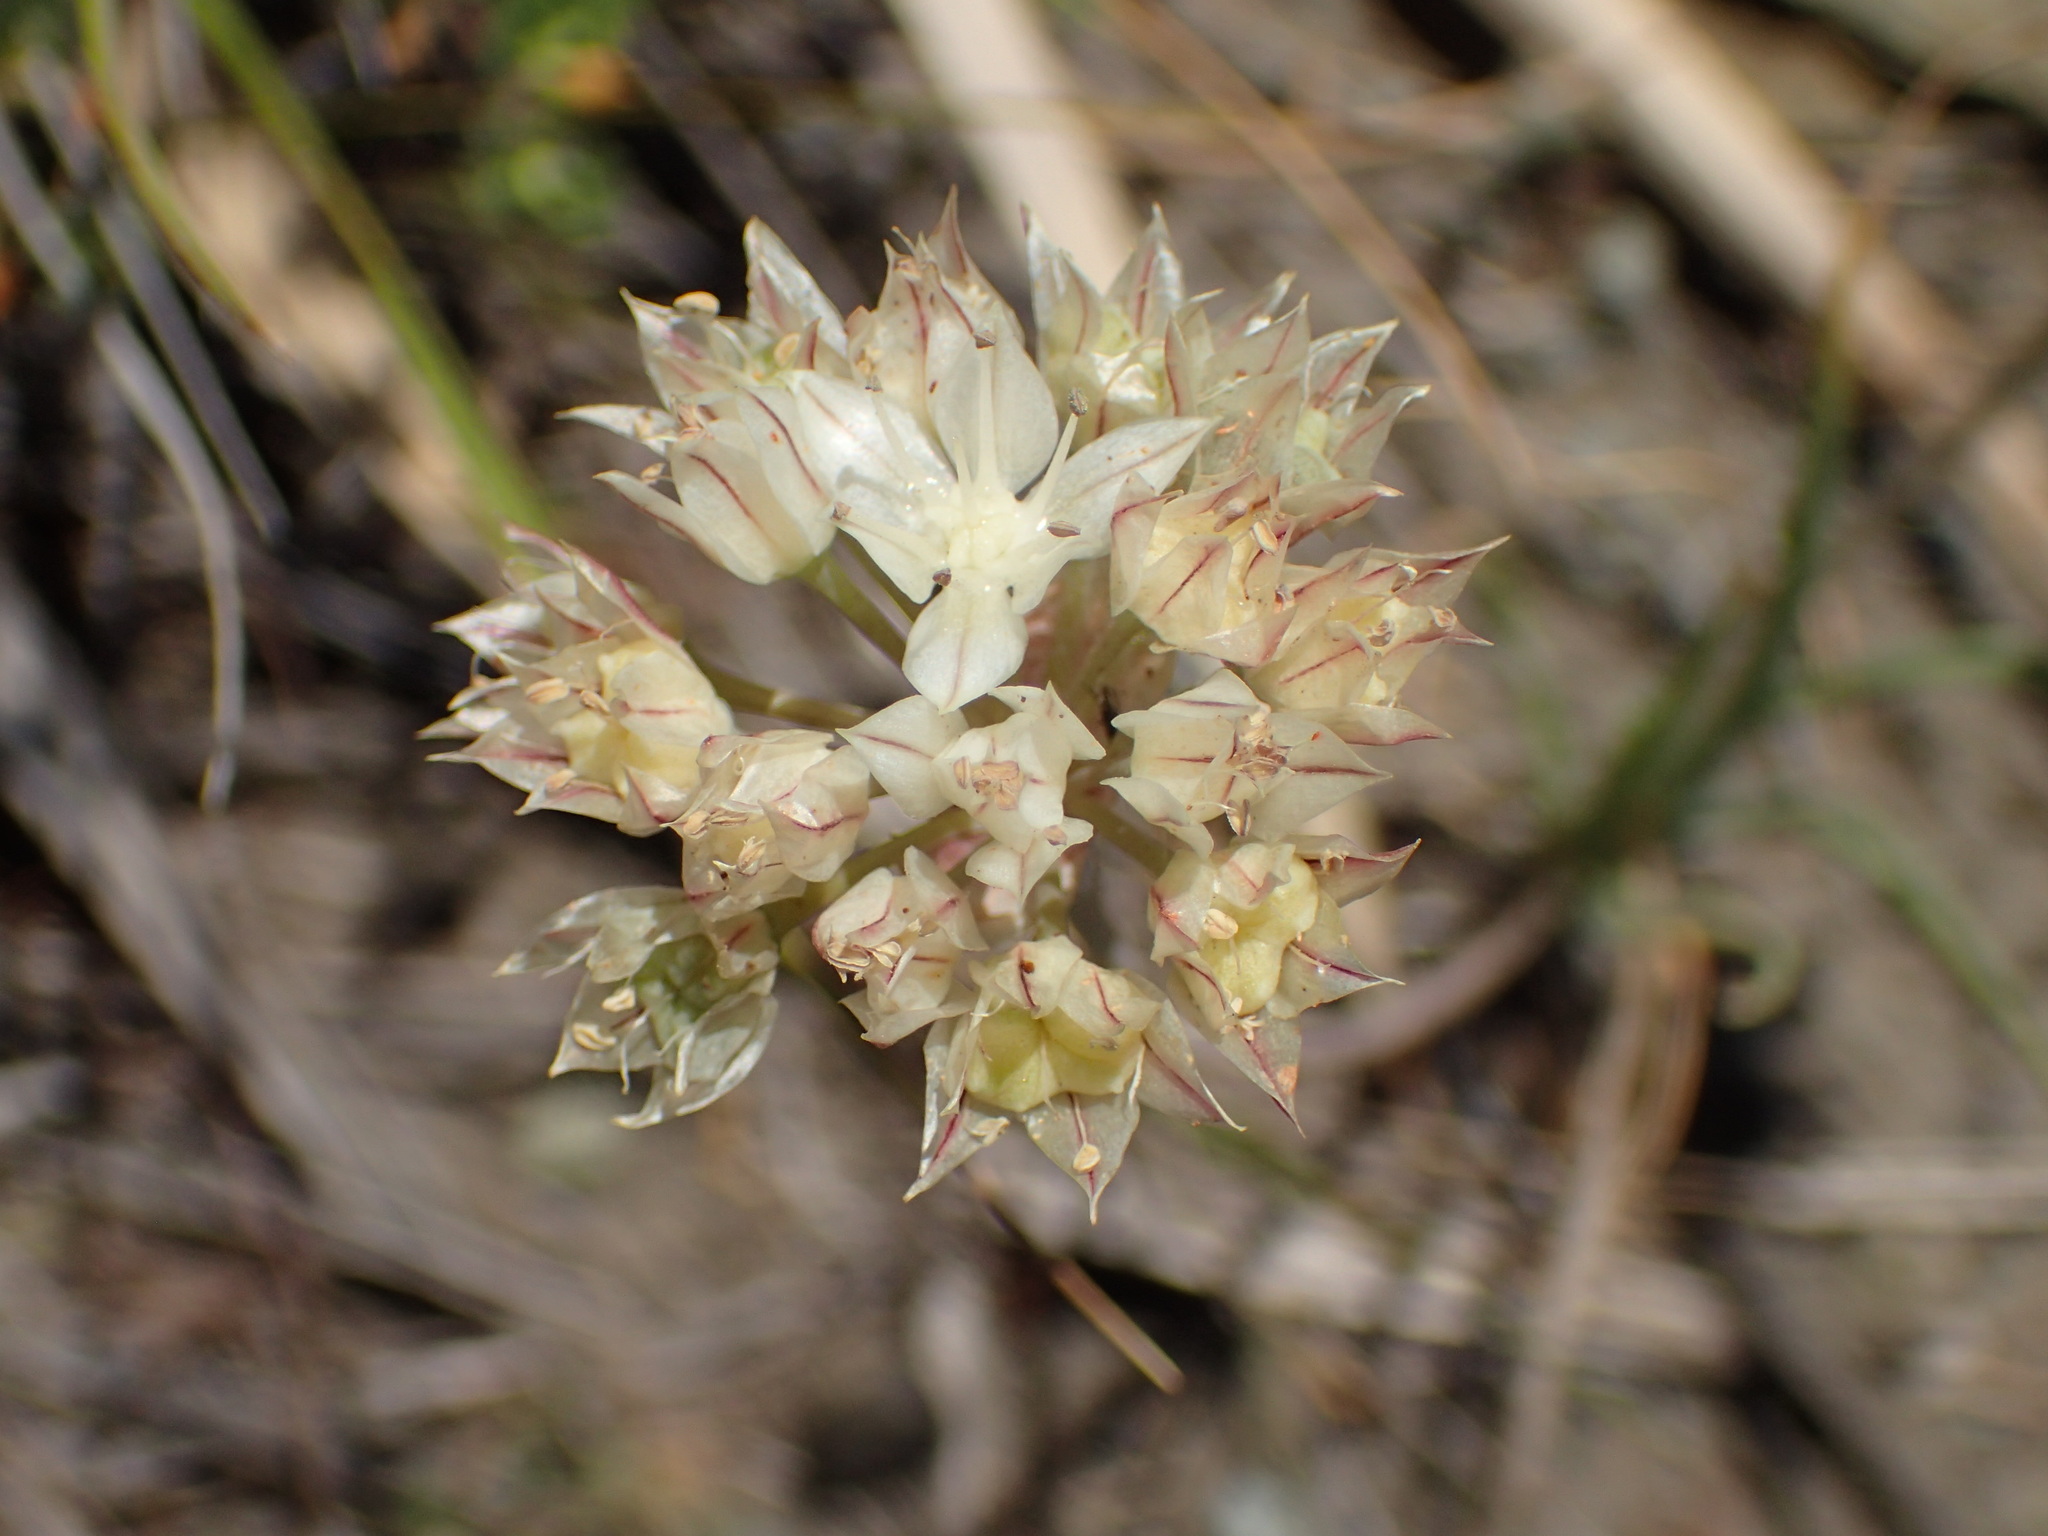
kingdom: Plantae
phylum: Tracheophyta
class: Liliopsida
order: Asparagales
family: Amaryllidaceae
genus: Allium
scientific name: Allium haematochiton
